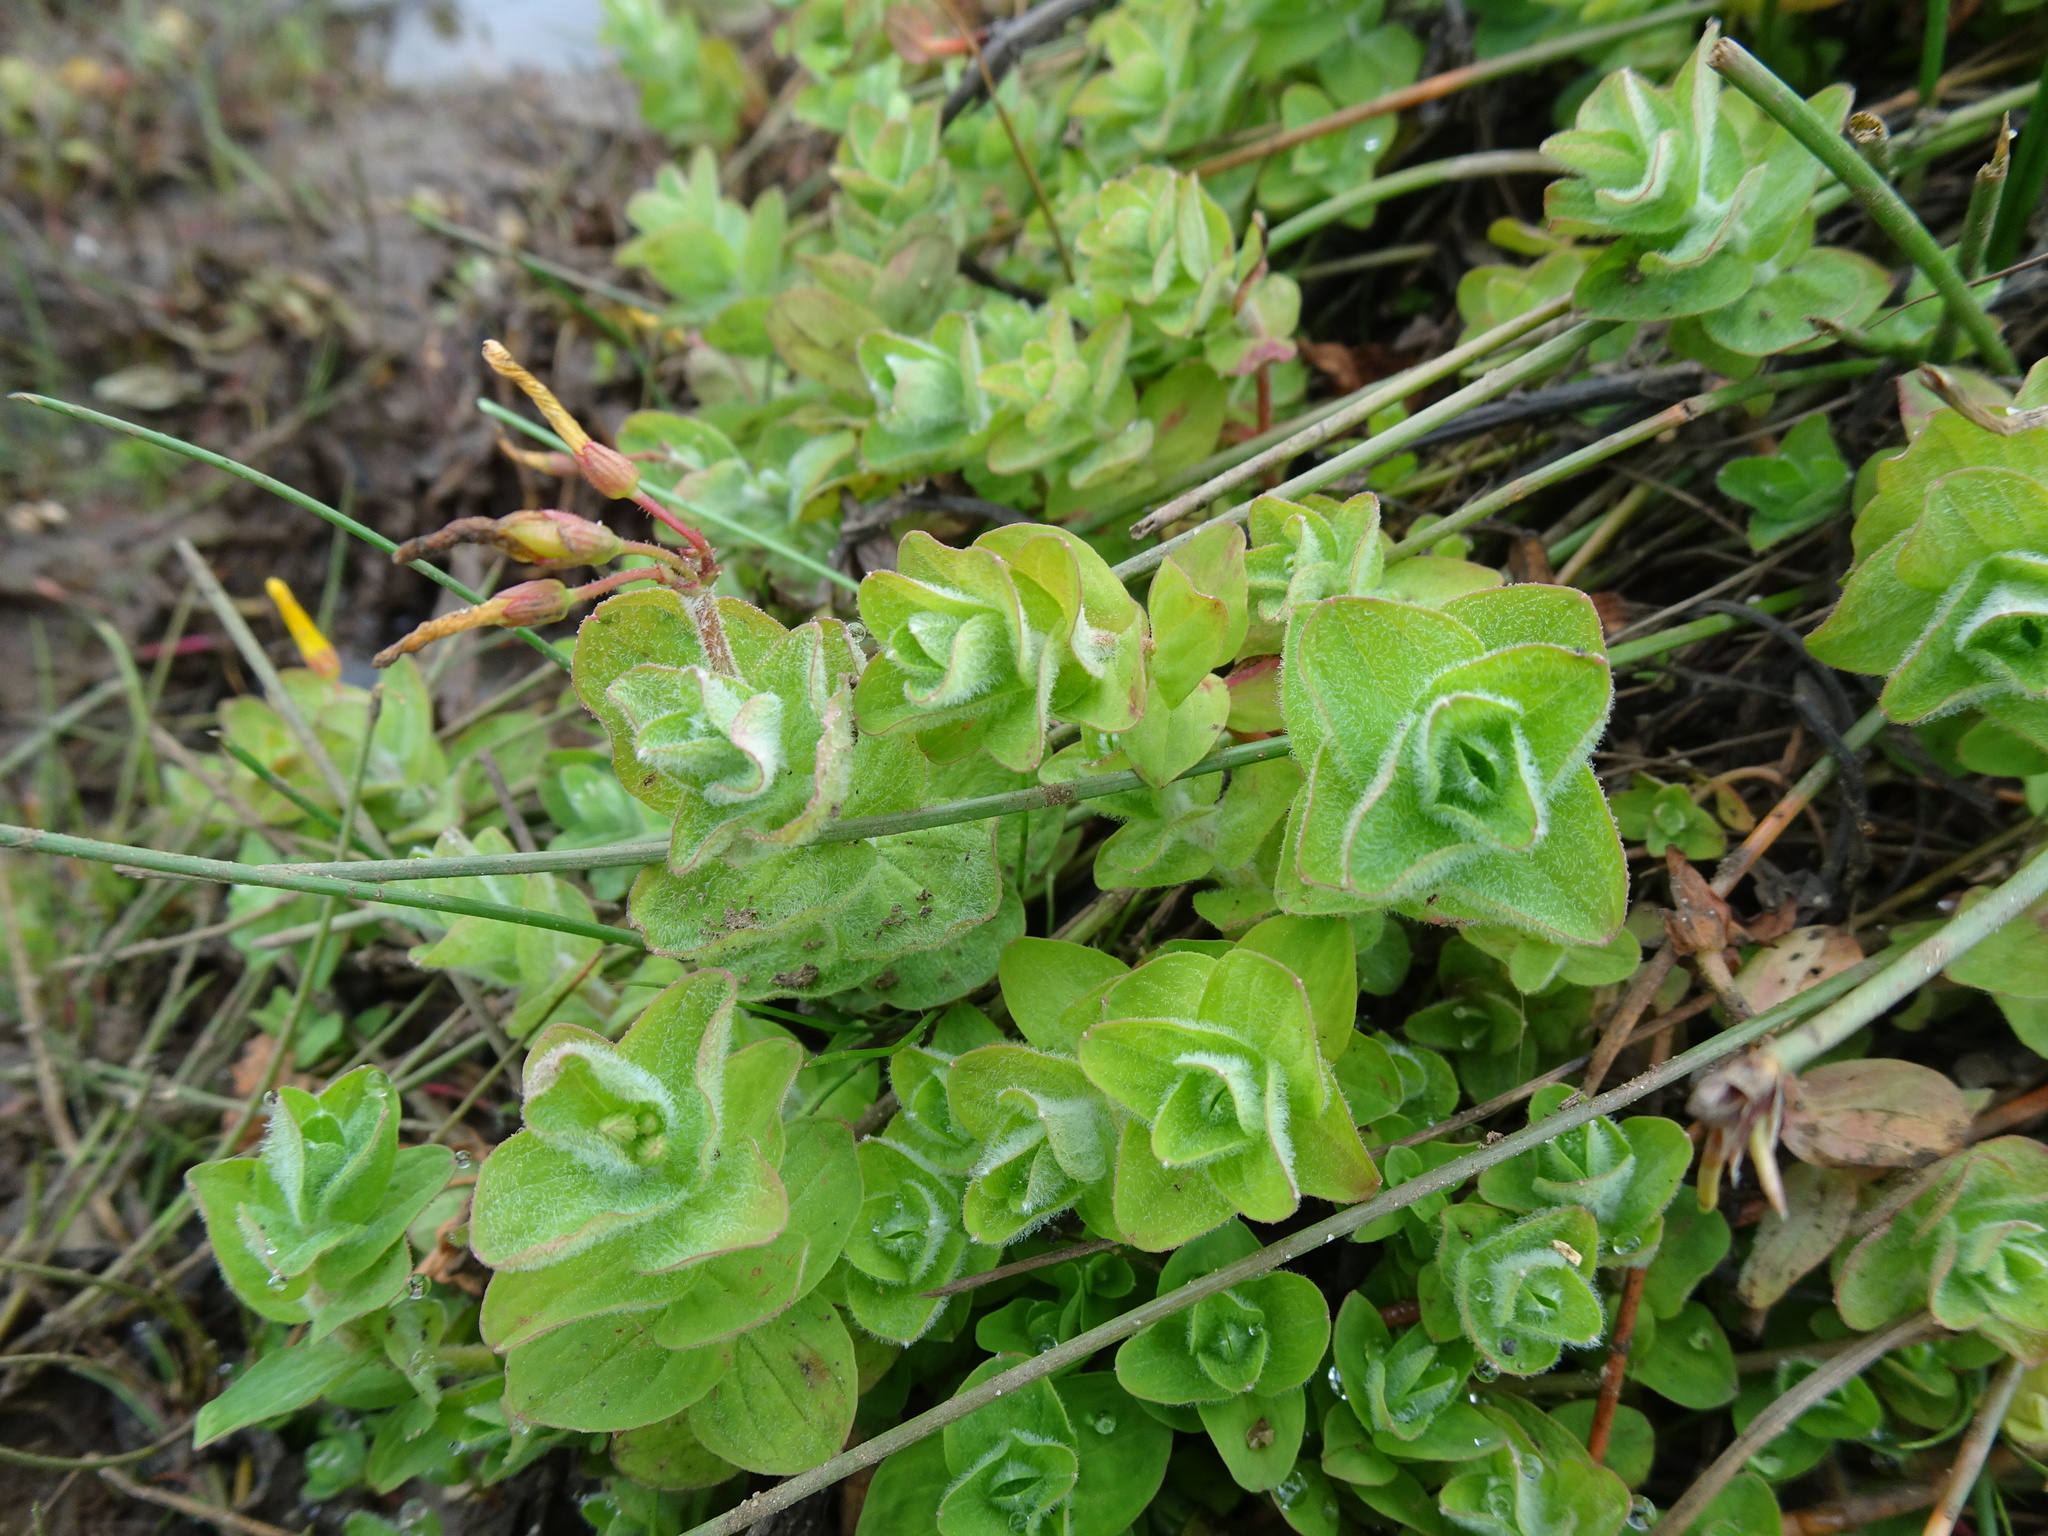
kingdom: Plantae
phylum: Tracheophyta
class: Magnoliopsida
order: Malpighiales
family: Hypericaceae
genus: Hypericum
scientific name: Hypericum elodes
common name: Marsh st. john's-wort
